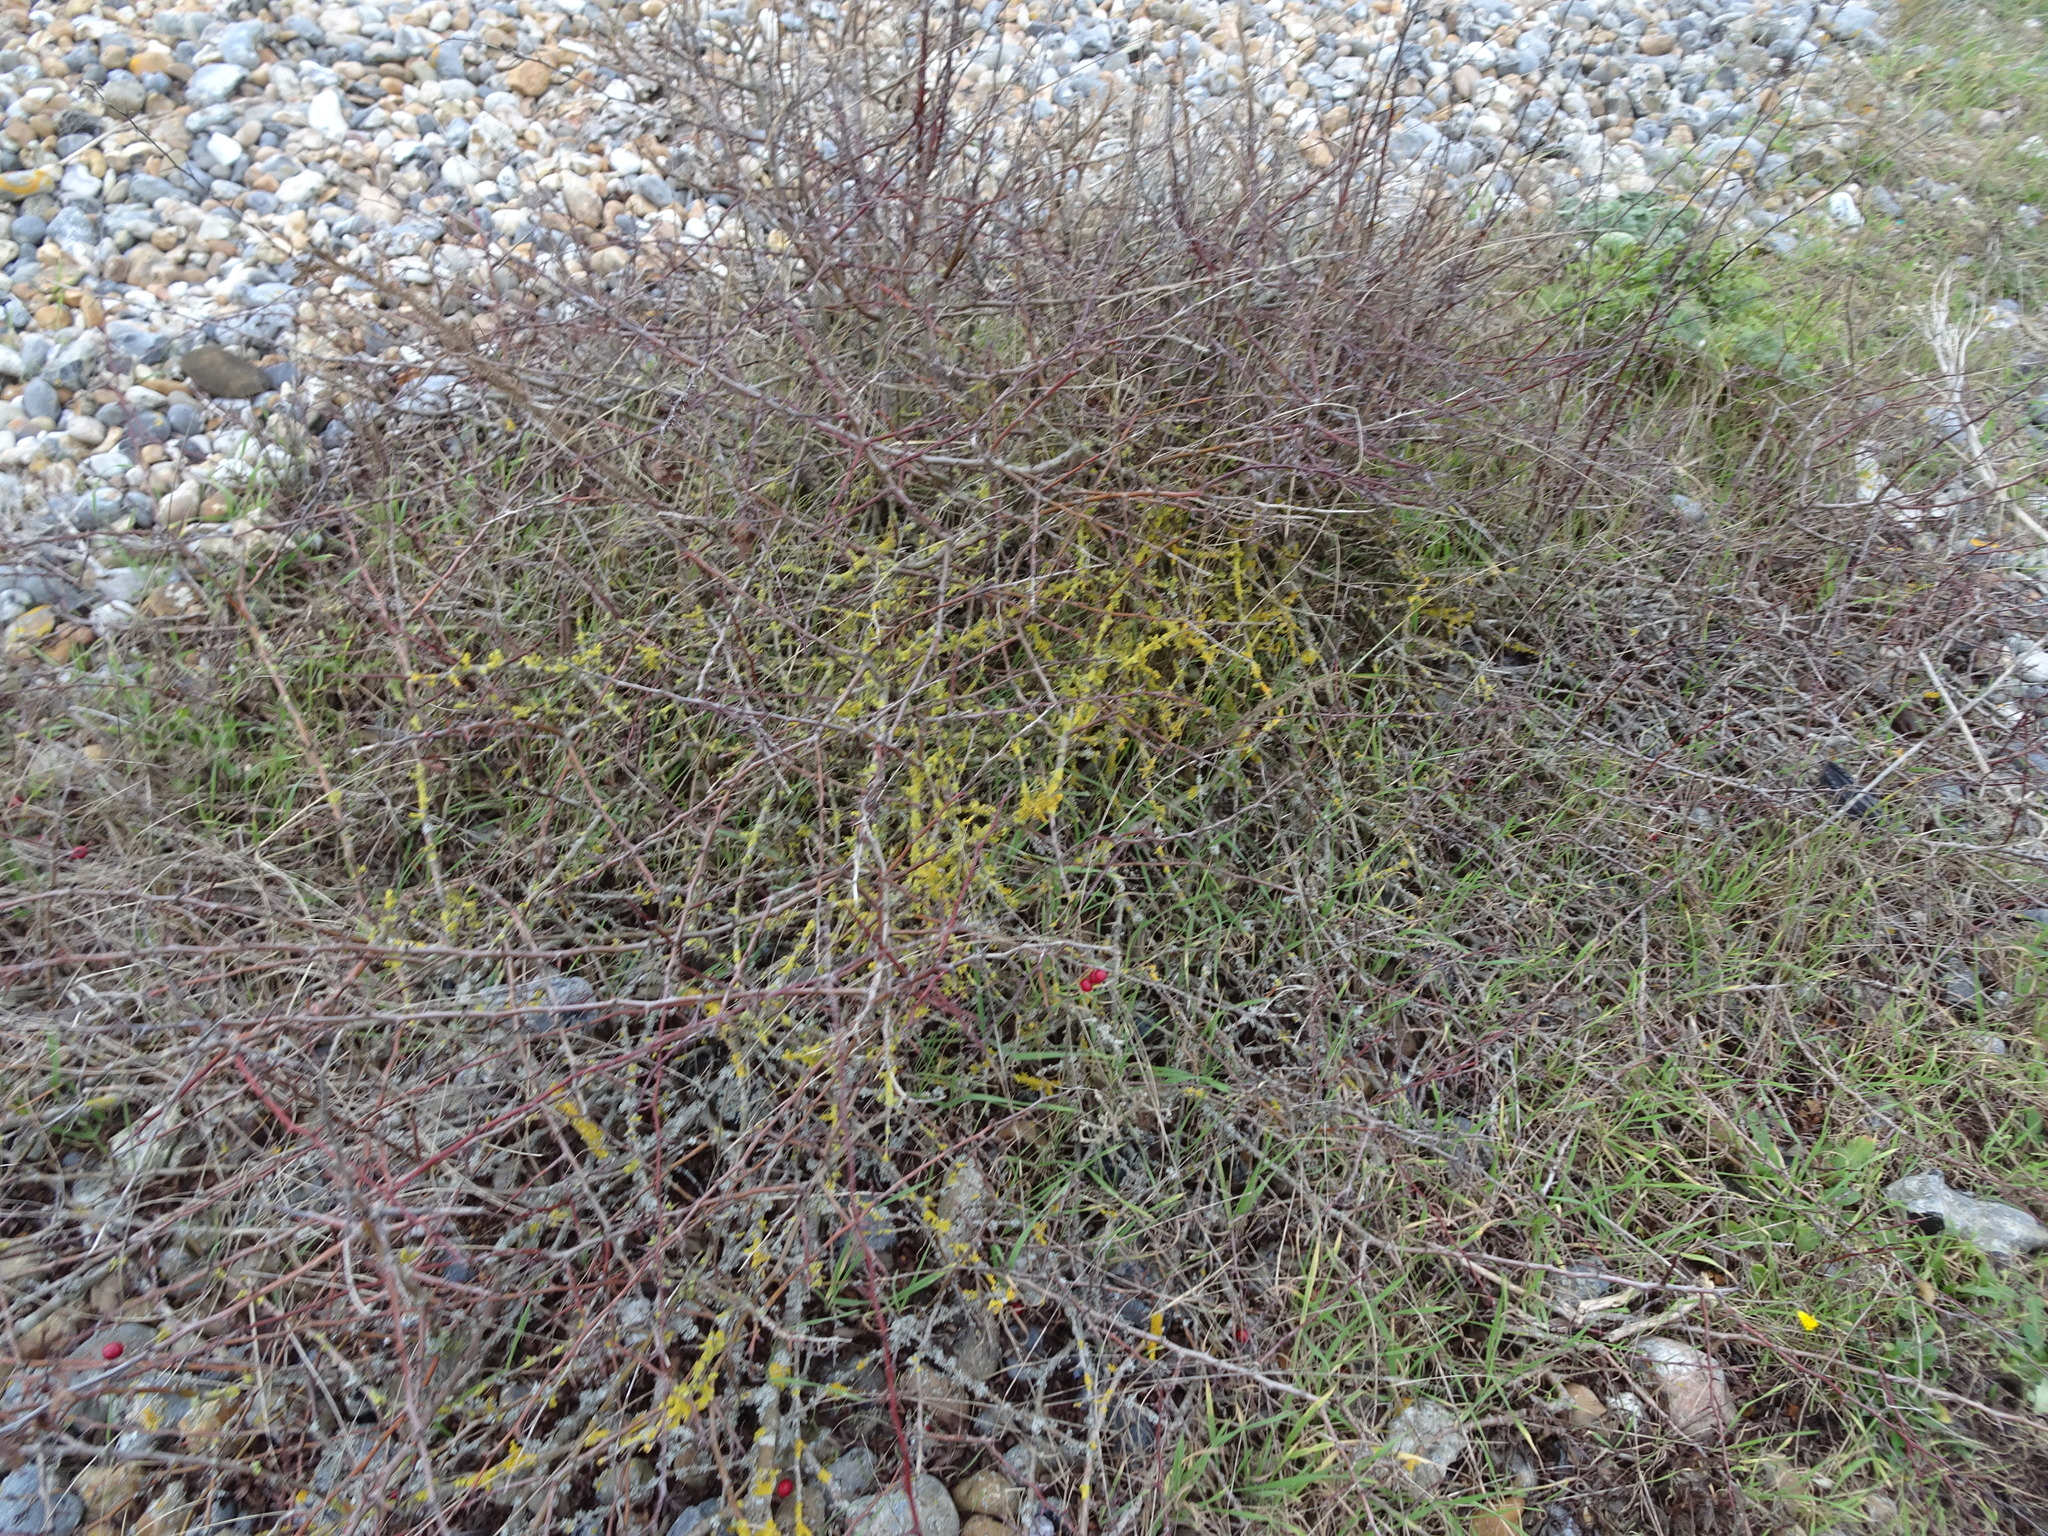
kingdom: Plantae
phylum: Tracheophyta
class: Magnoliopsida
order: Rosales
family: Rosaceae
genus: Crataegus
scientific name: Crataegus monogyna
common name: Hawthorn
